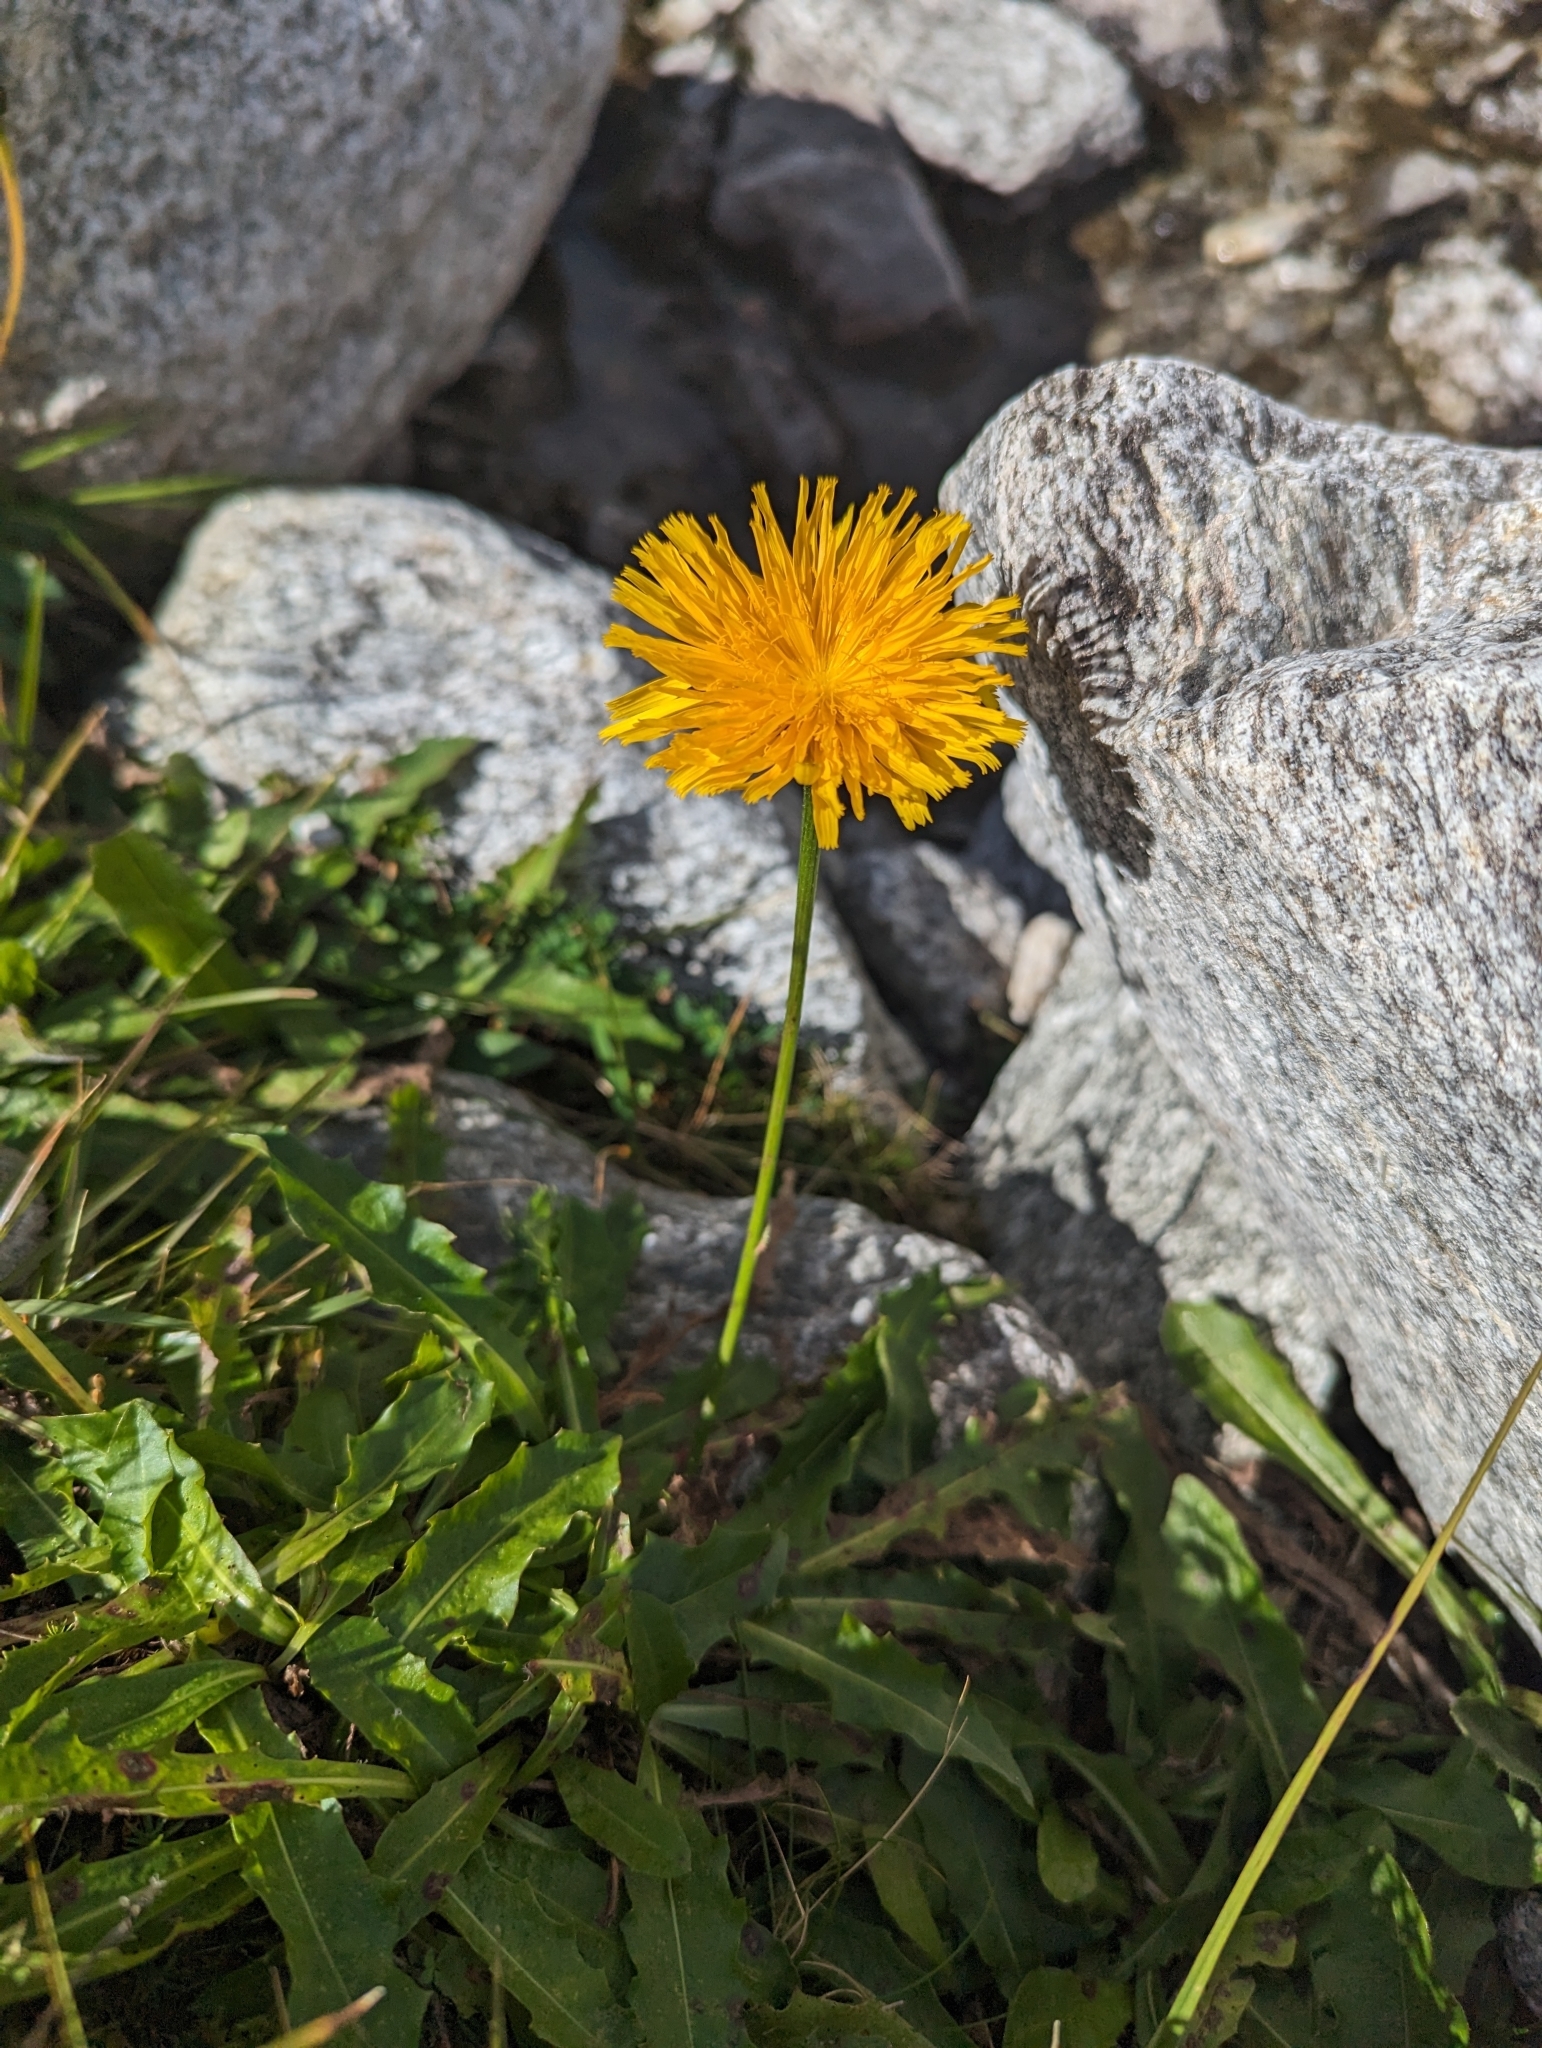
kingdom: Plantae
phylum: Tracheophyta
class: Magnoliopsida
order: Asterales
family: Asteraceae
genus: Leontodon
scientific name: Leontodon hispidus
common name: Rough hawkbit
